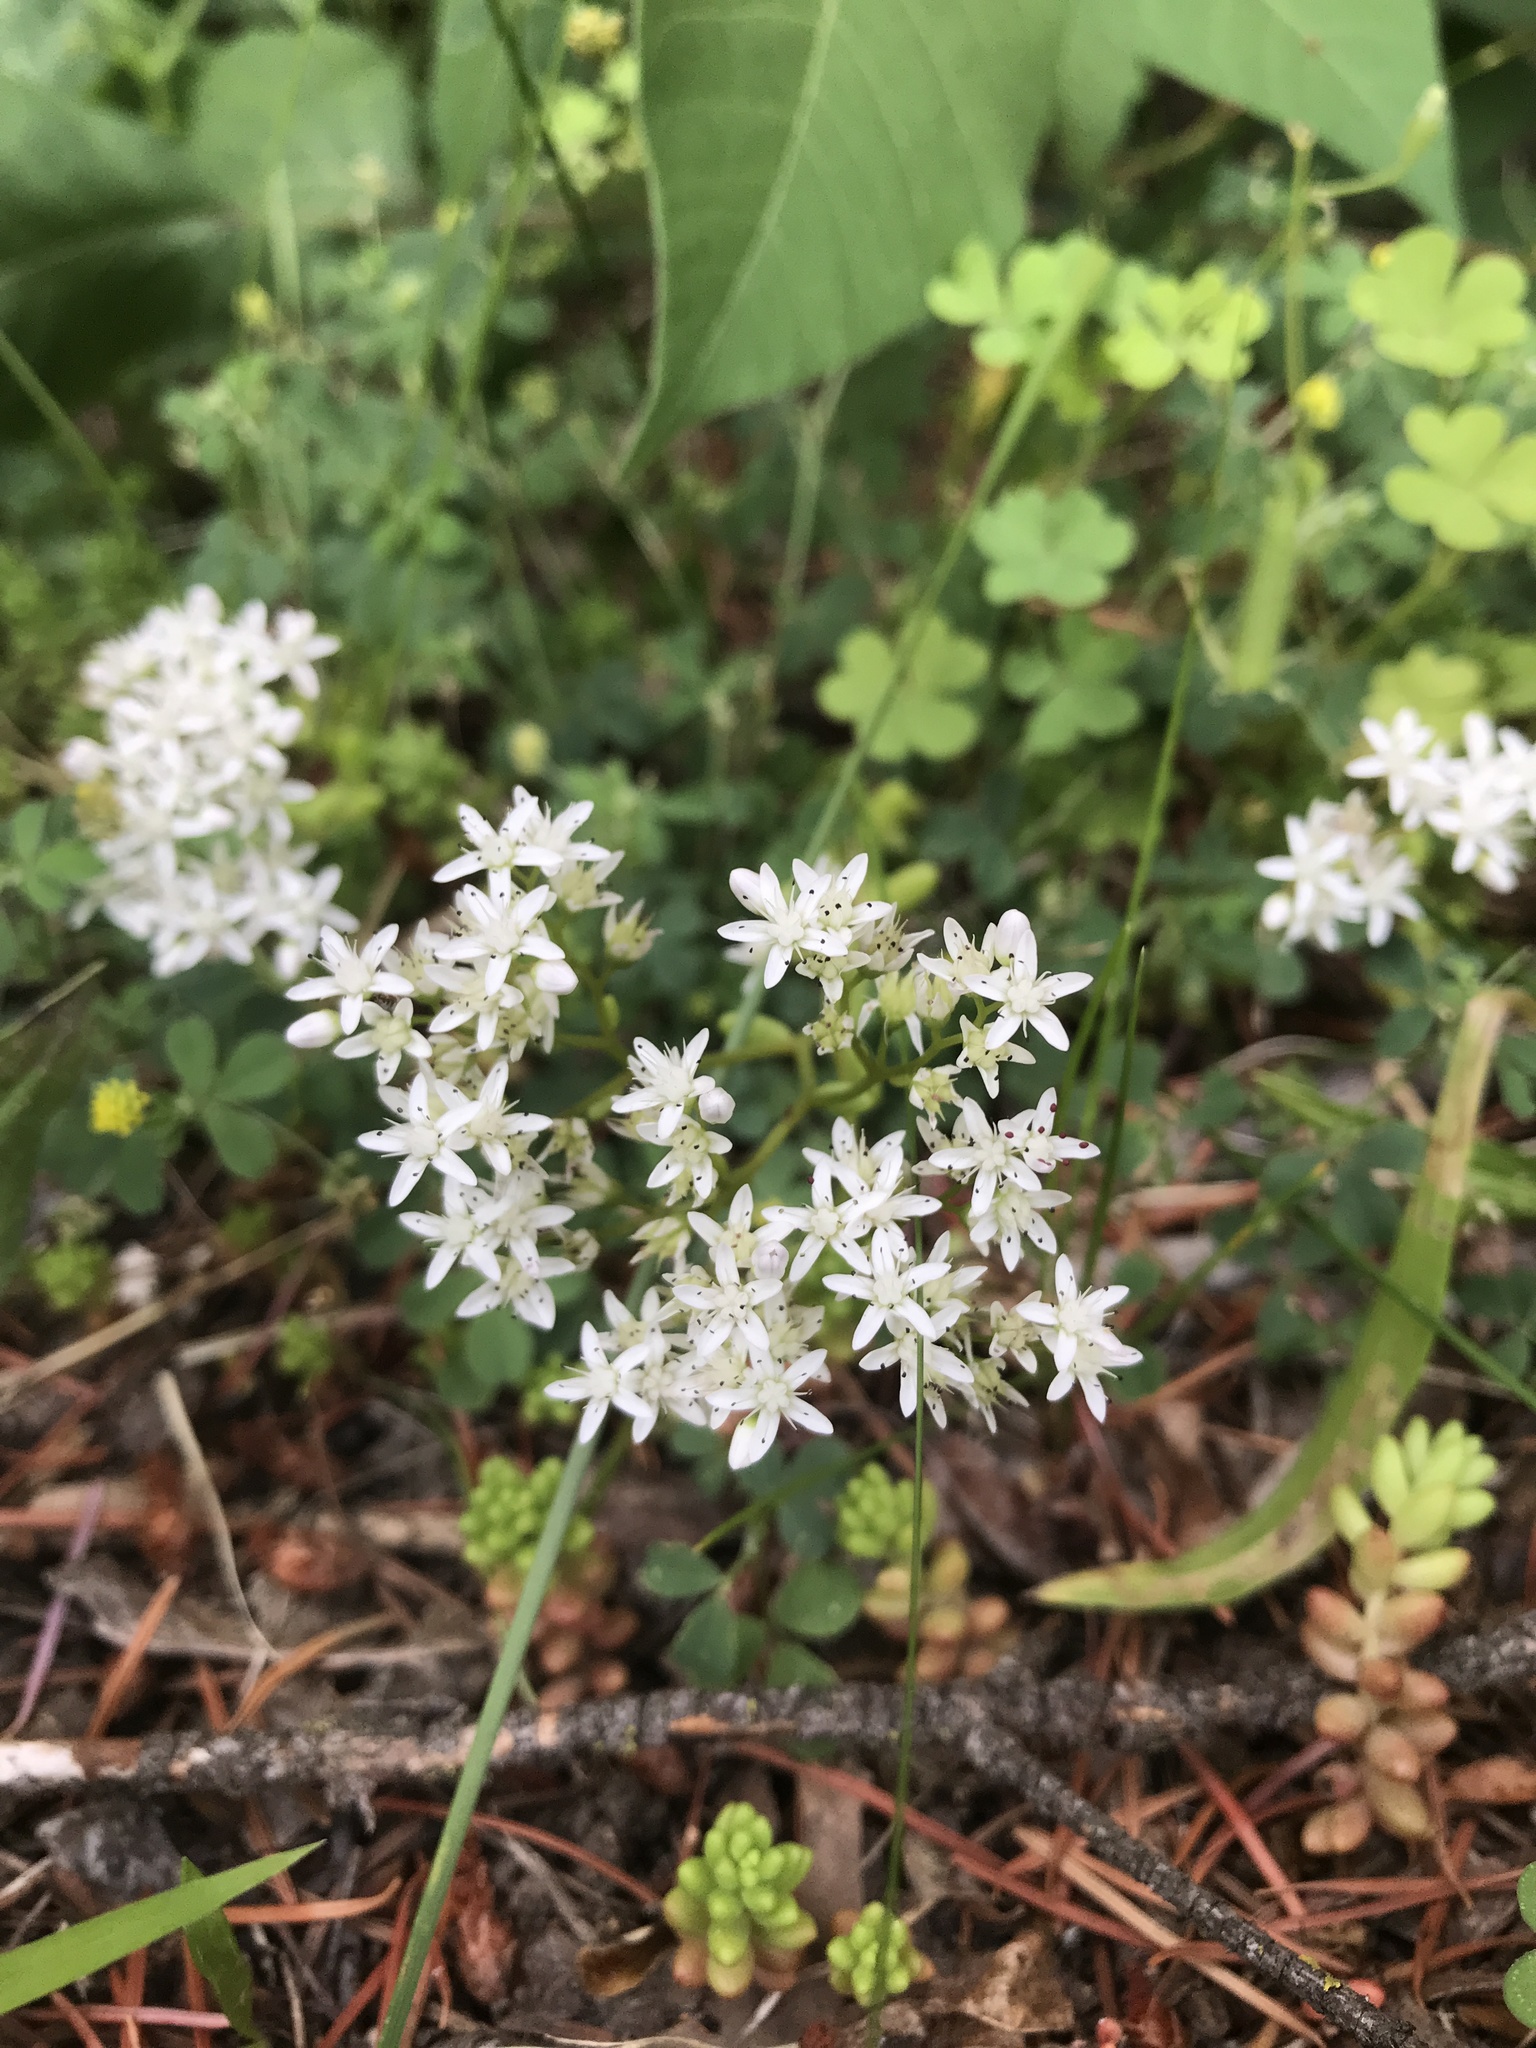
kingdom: Plantae
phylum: Tracheophyta
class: Magnoliopsida
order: Saxifragales
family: Crassulaceae
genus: Sedum
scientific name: Sedum album
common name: White stonecrop
